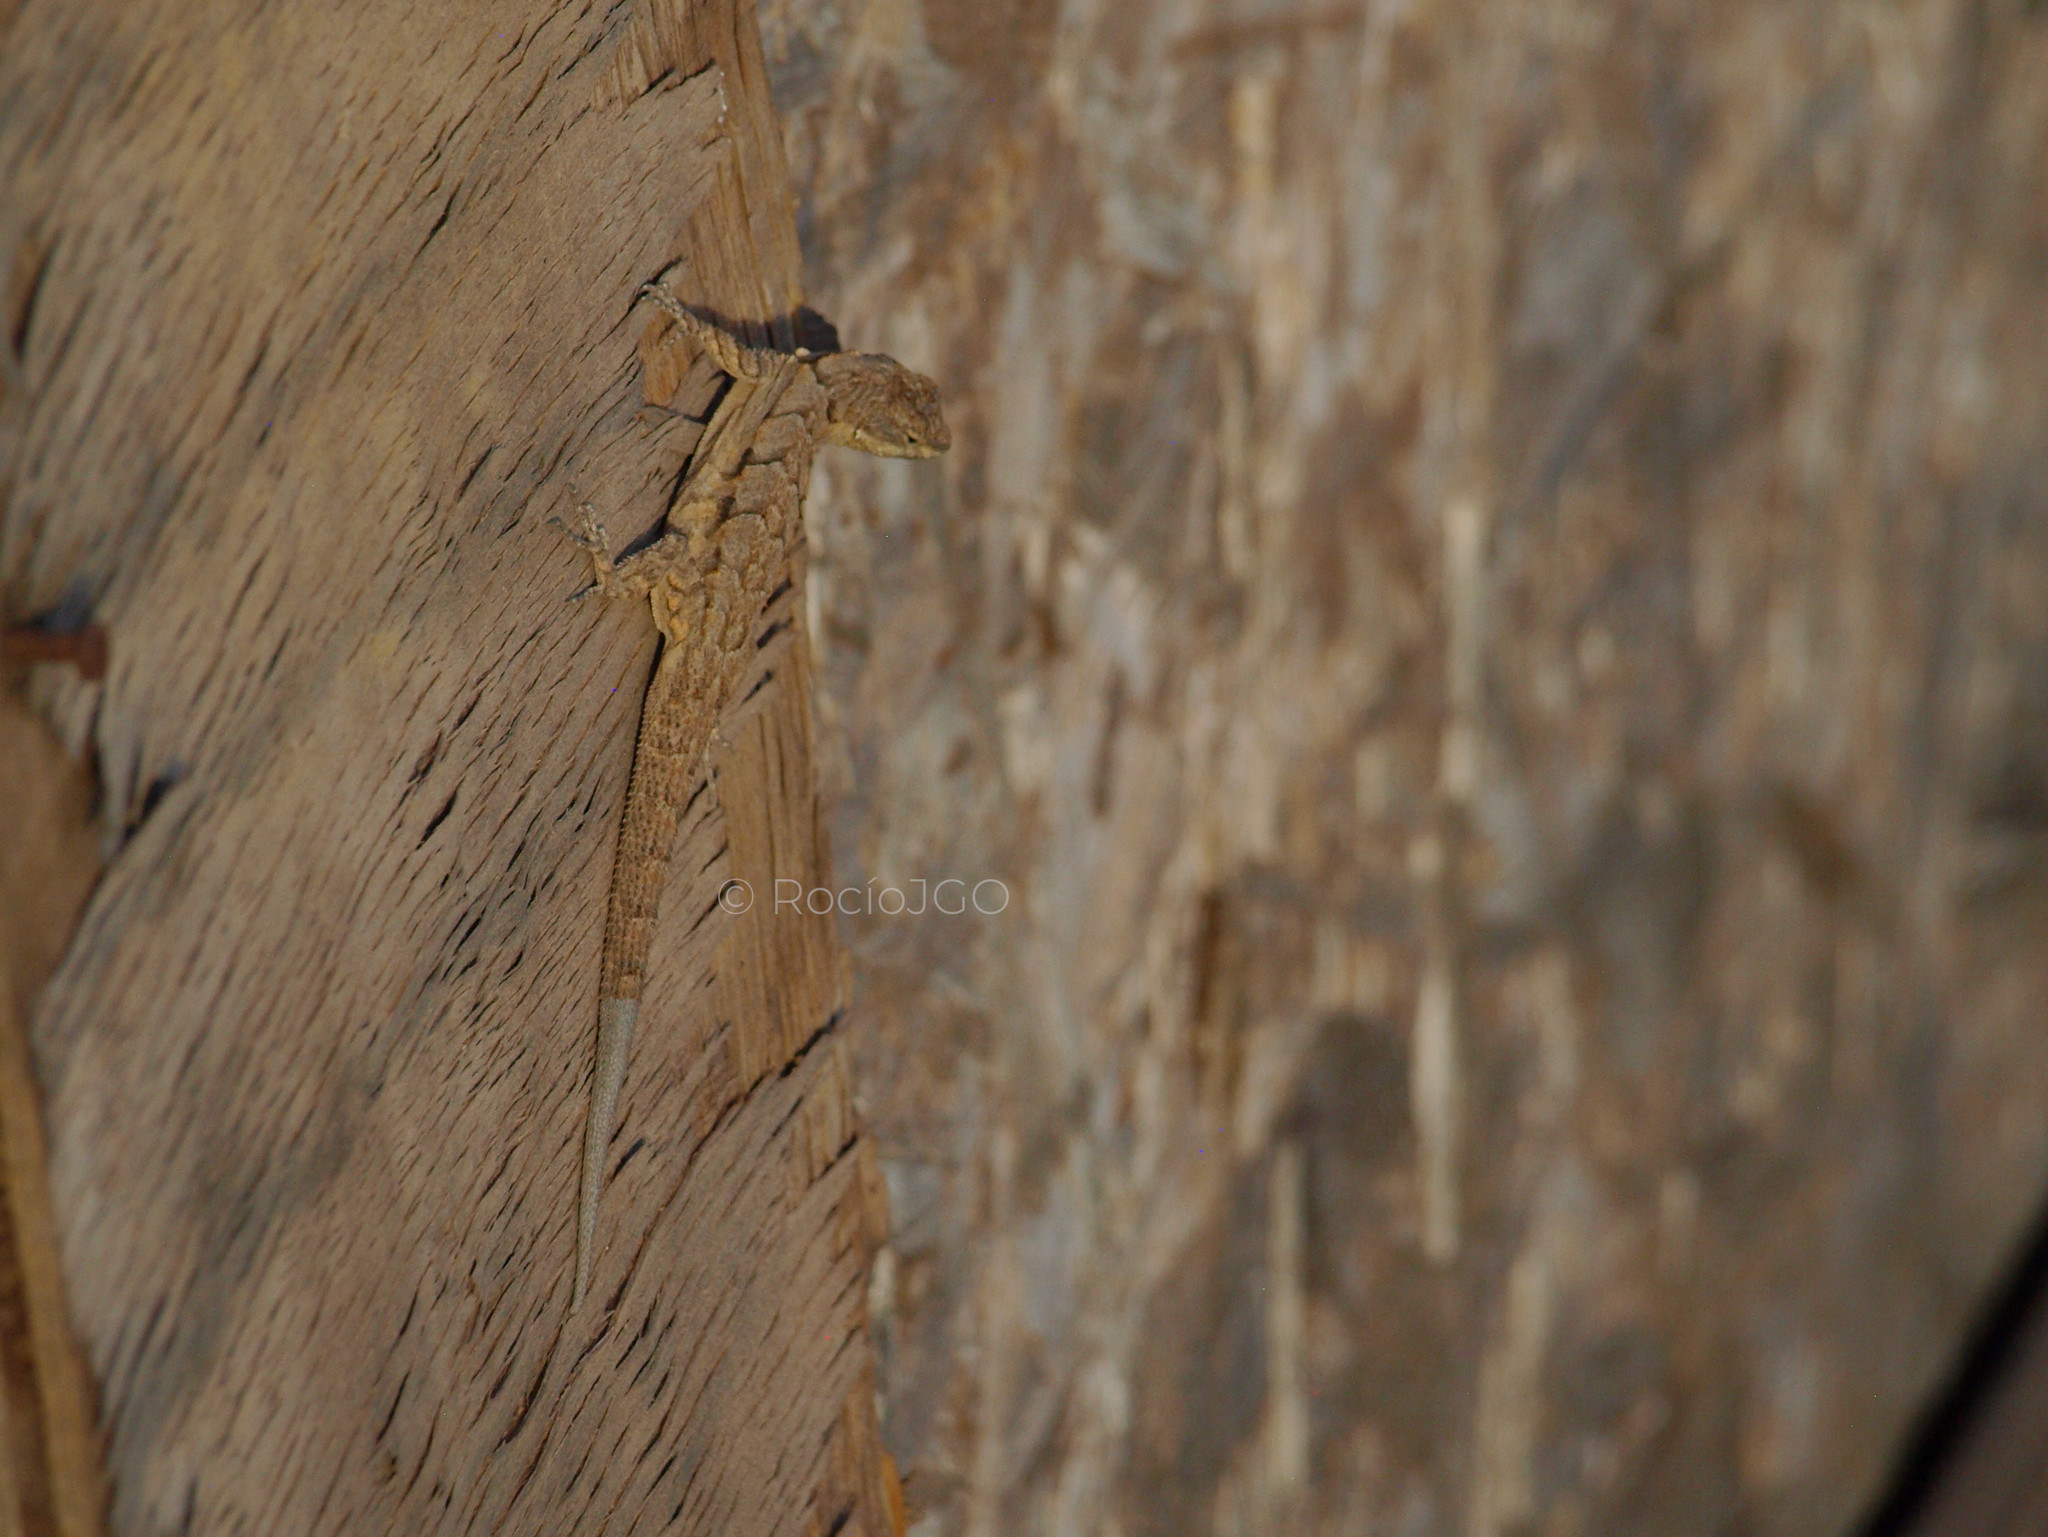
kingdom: Animalia
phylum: Chordata
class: Squamata
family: Phrynosomatidae
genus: Urosaurus
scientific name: Urosaurus ornatus
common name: Ornate tree lizard
